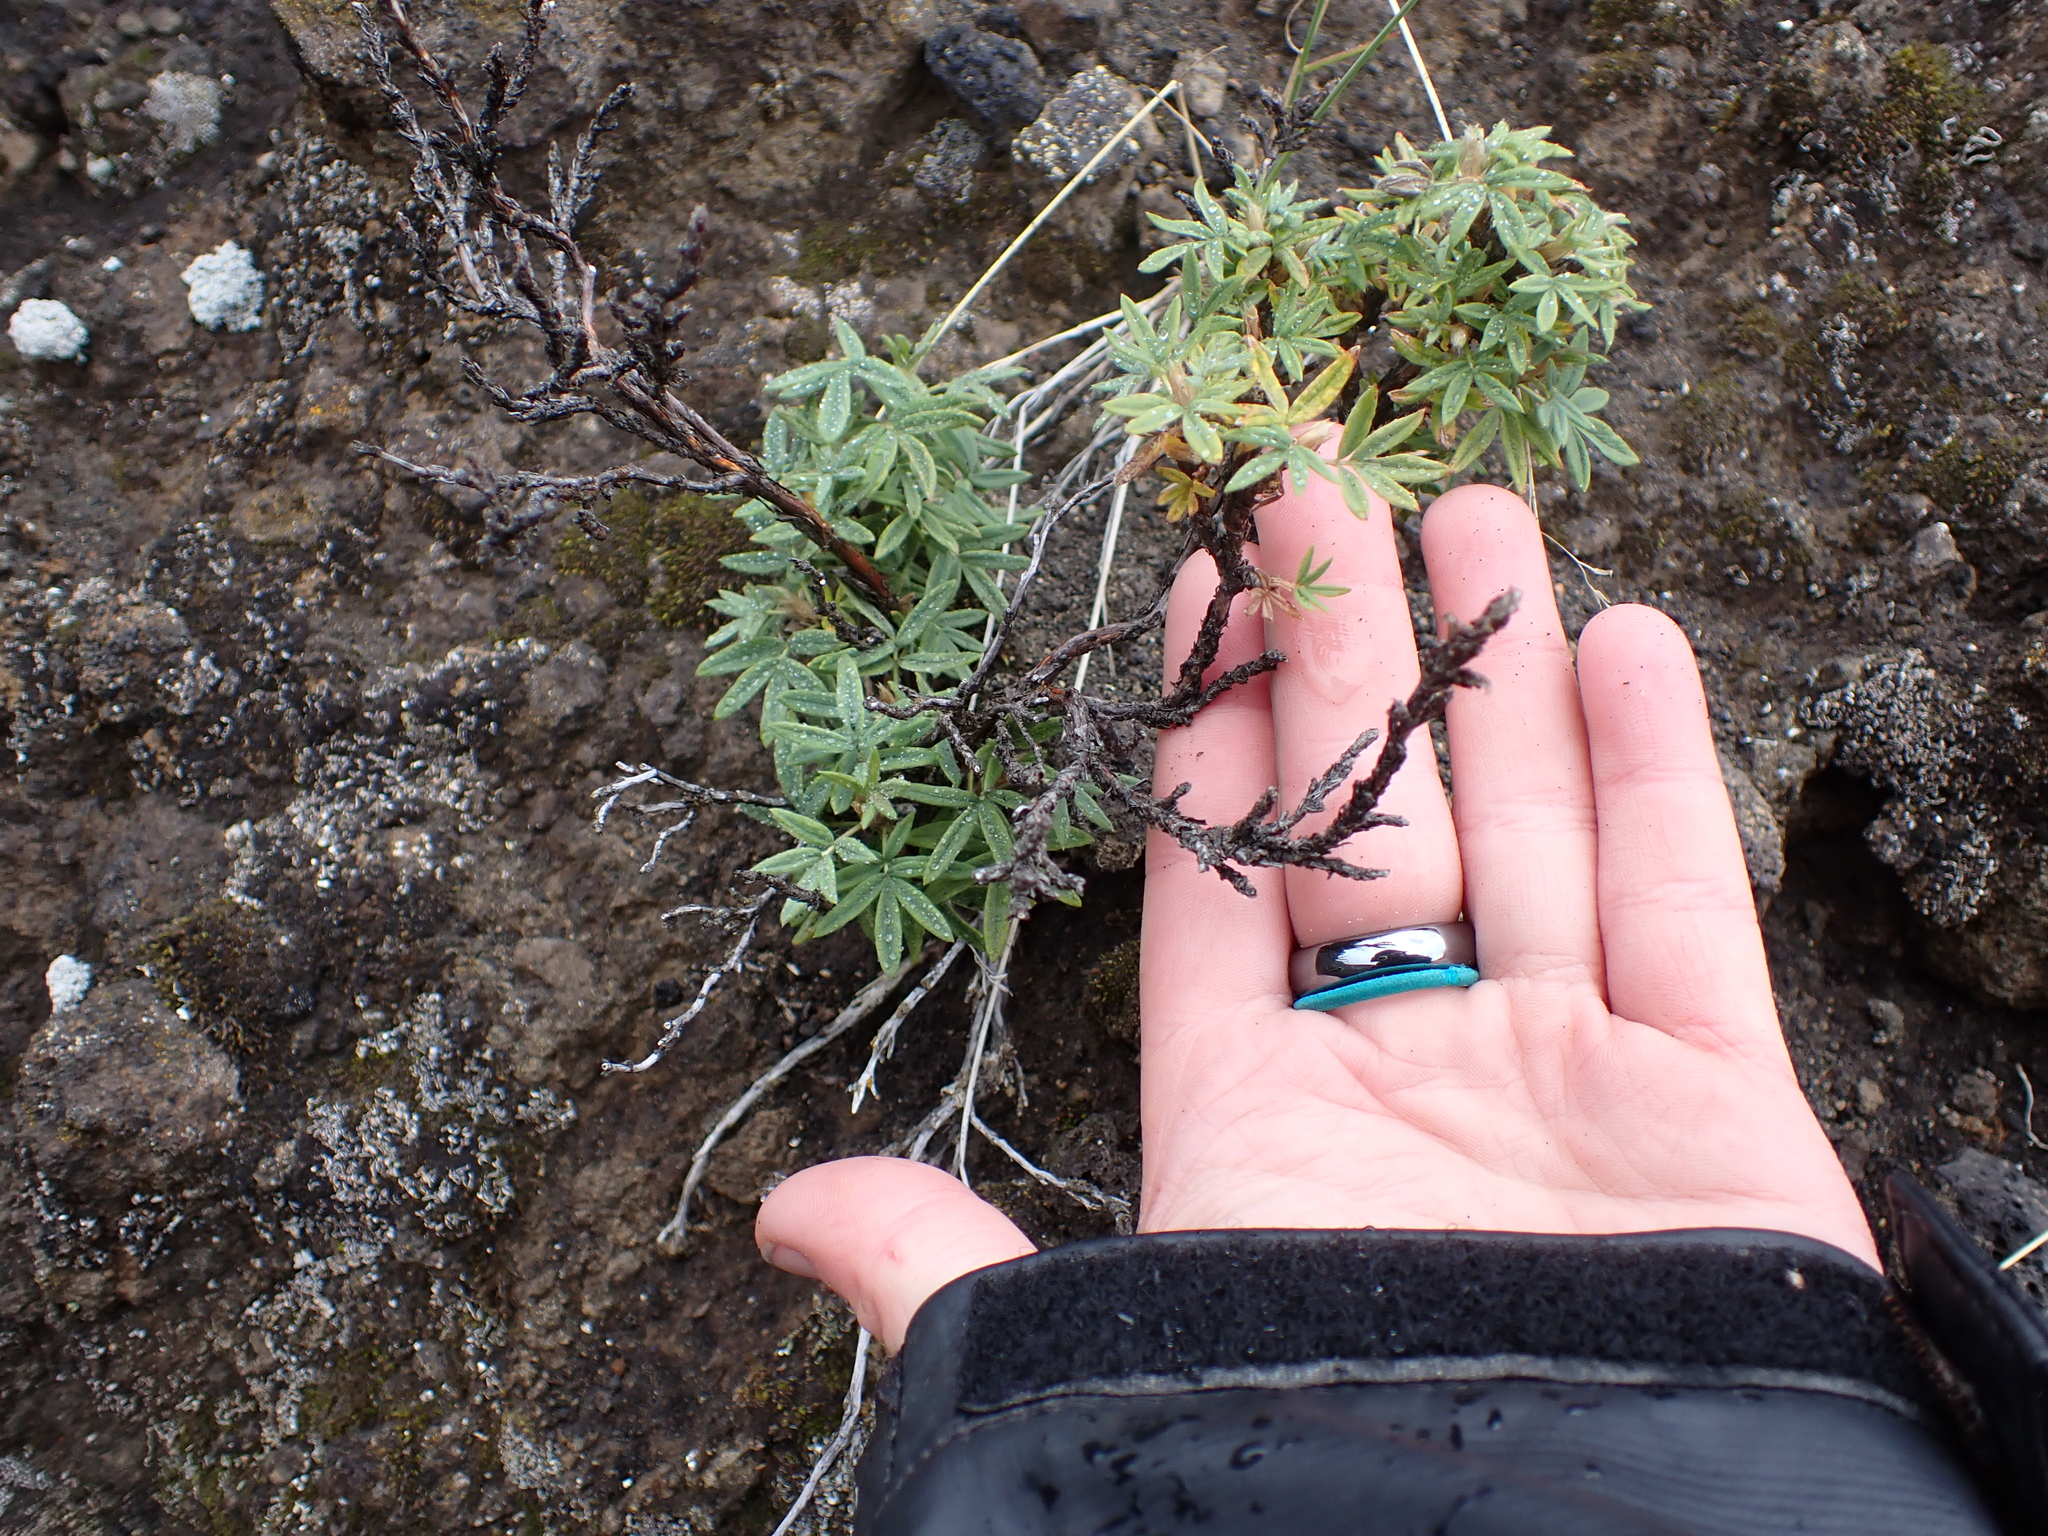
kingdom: Plantae
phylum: Tracheophyta
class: Magnoliopsida
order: Rosales
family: Rosaceae
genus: Dasiphora
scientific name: Dasiphora fruticosa
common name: Shrubby cinquefoil
